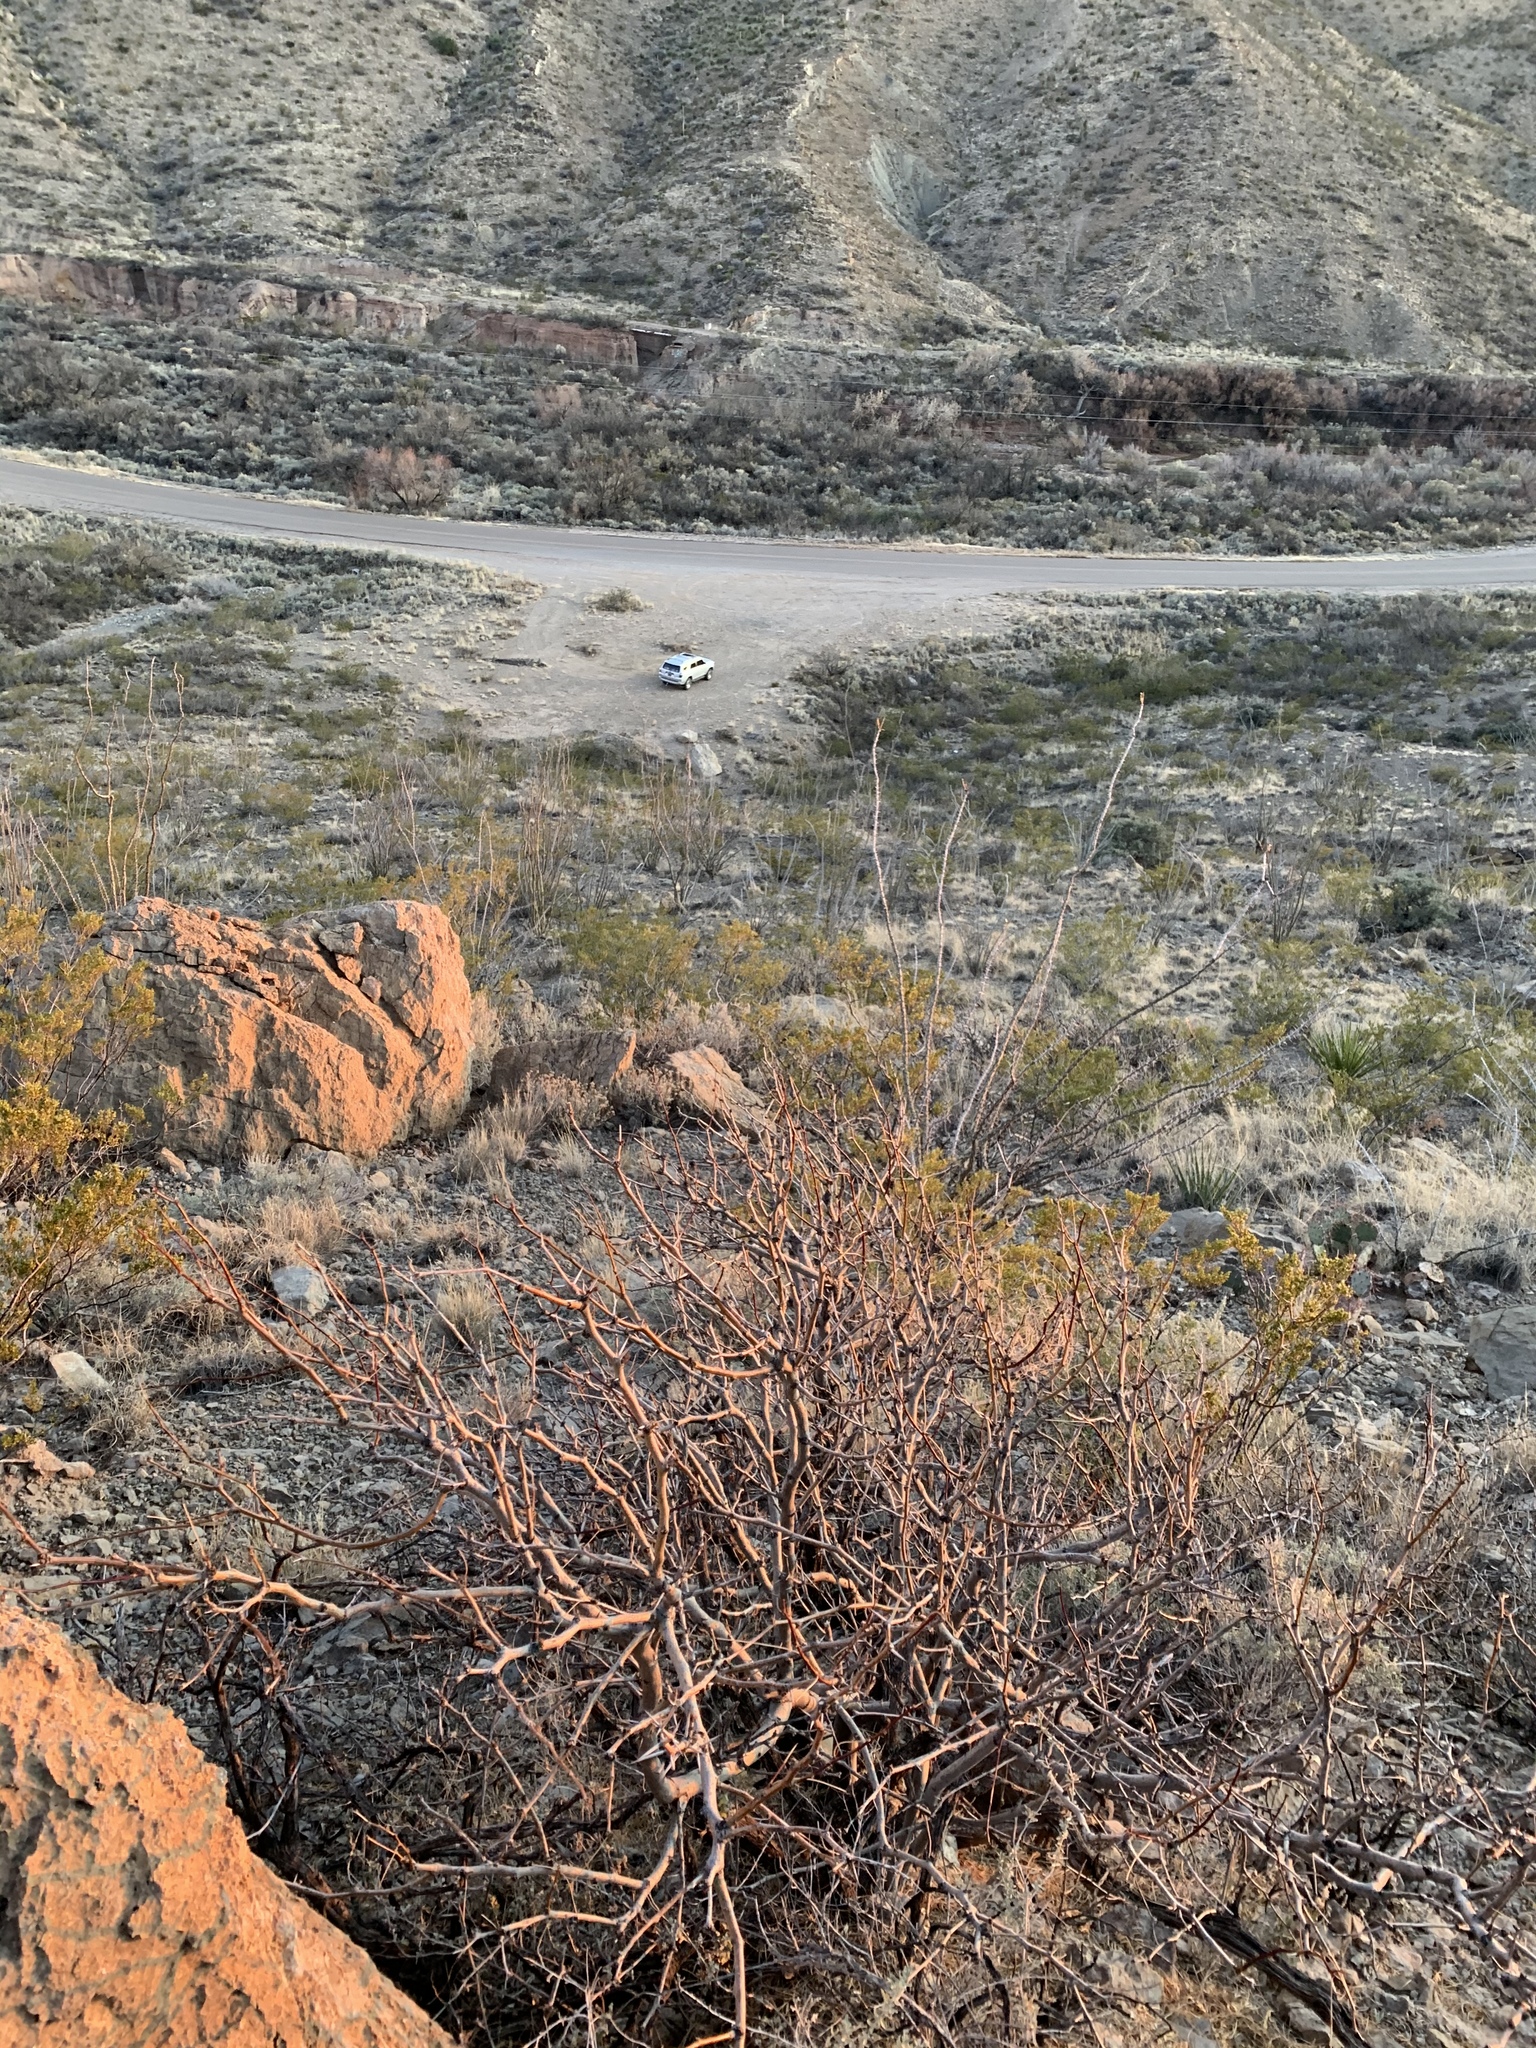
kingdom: Plantae
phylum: Tracheophyta
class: Magnoliopsida
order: Fabales
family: Fabaceae
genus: Prosopis
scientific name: Prosopis glandulosa
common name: Honey mesquite
